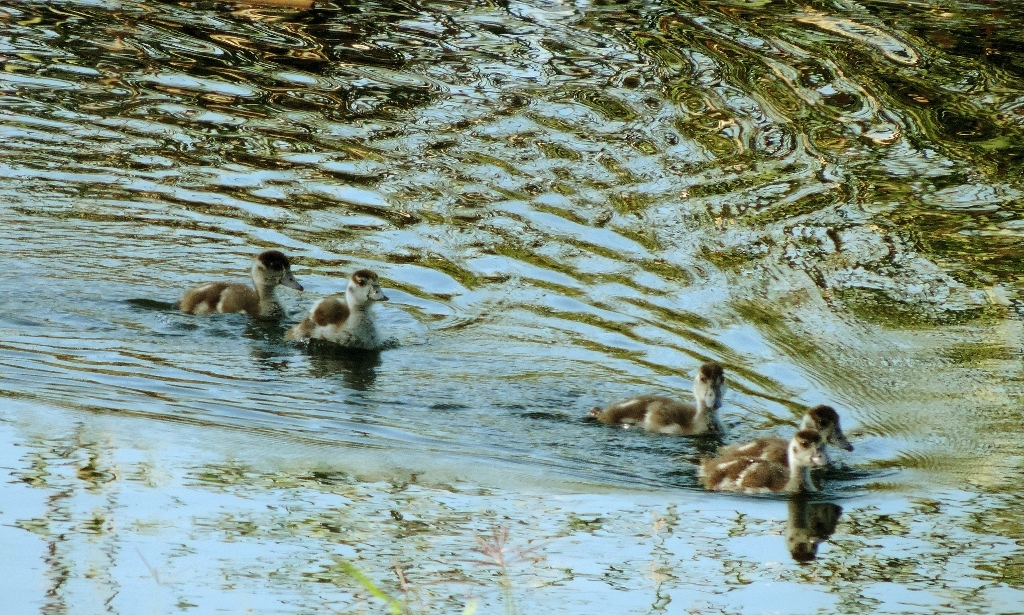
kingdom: Animalia
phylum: Chordata
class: Aves
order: Anseriformes
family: Anatidae
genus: Alopochen
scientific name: Alopochen aegyptiaca
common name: Egyptian goose
